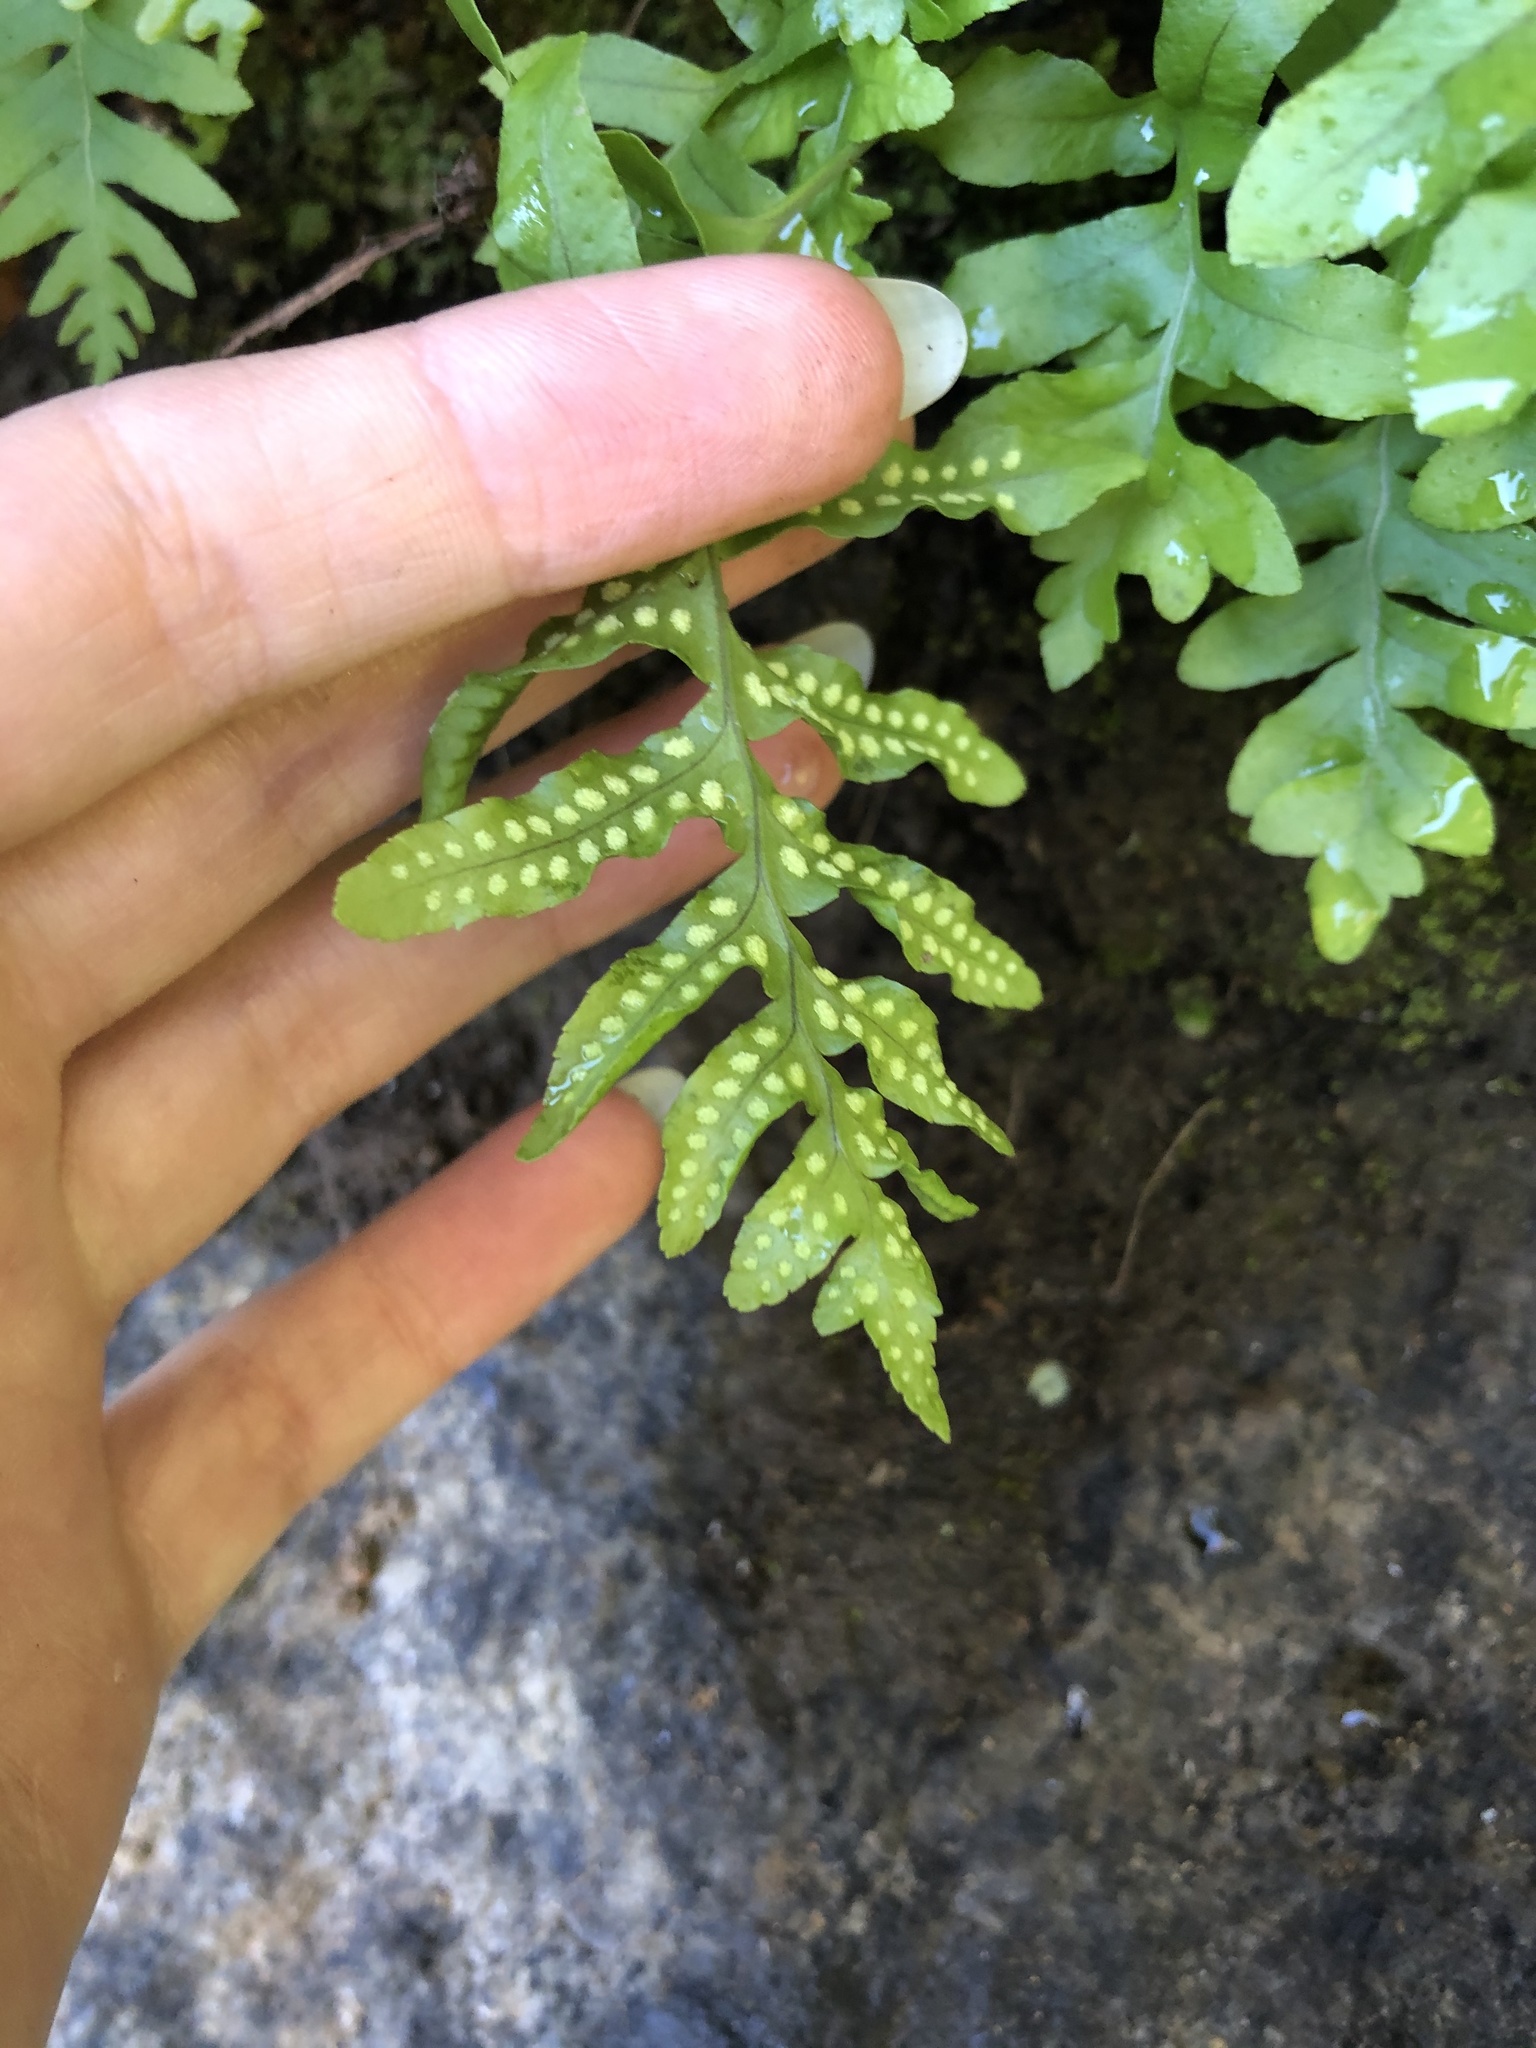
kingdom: Plantae
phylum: Tracheophyta
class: Polypodiopsida
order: Polypodiales
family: Polypodiaceae
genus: Polypodium
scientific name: Polypodium californicum
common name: California polypody
